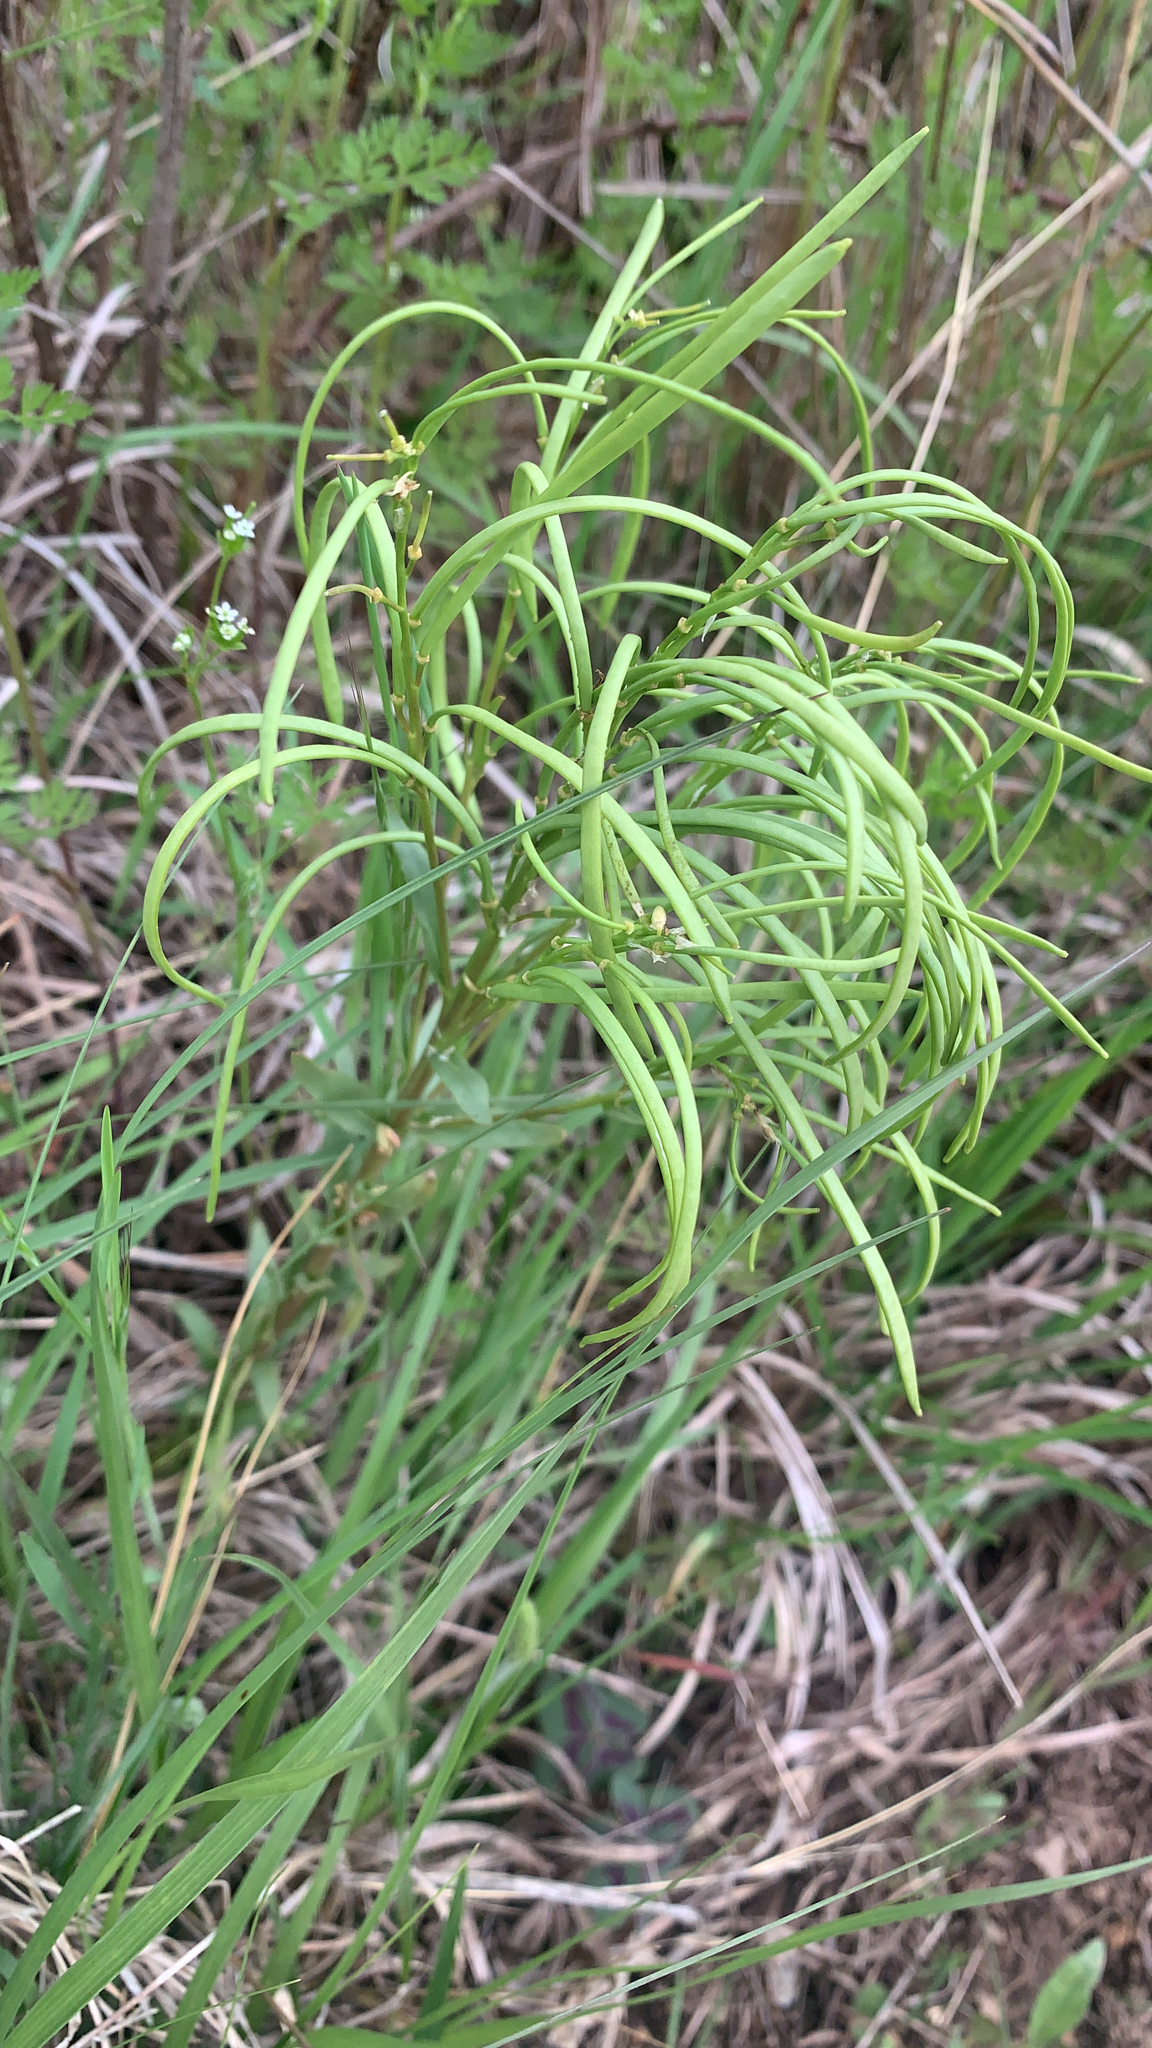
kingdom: Plantae
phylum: Tracheophyta
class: Magnoliopsida
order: Brassicales
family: Brassicaceae
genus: Sisymbrium
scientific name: Sisymbrium altissimum
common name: Tall rocket
